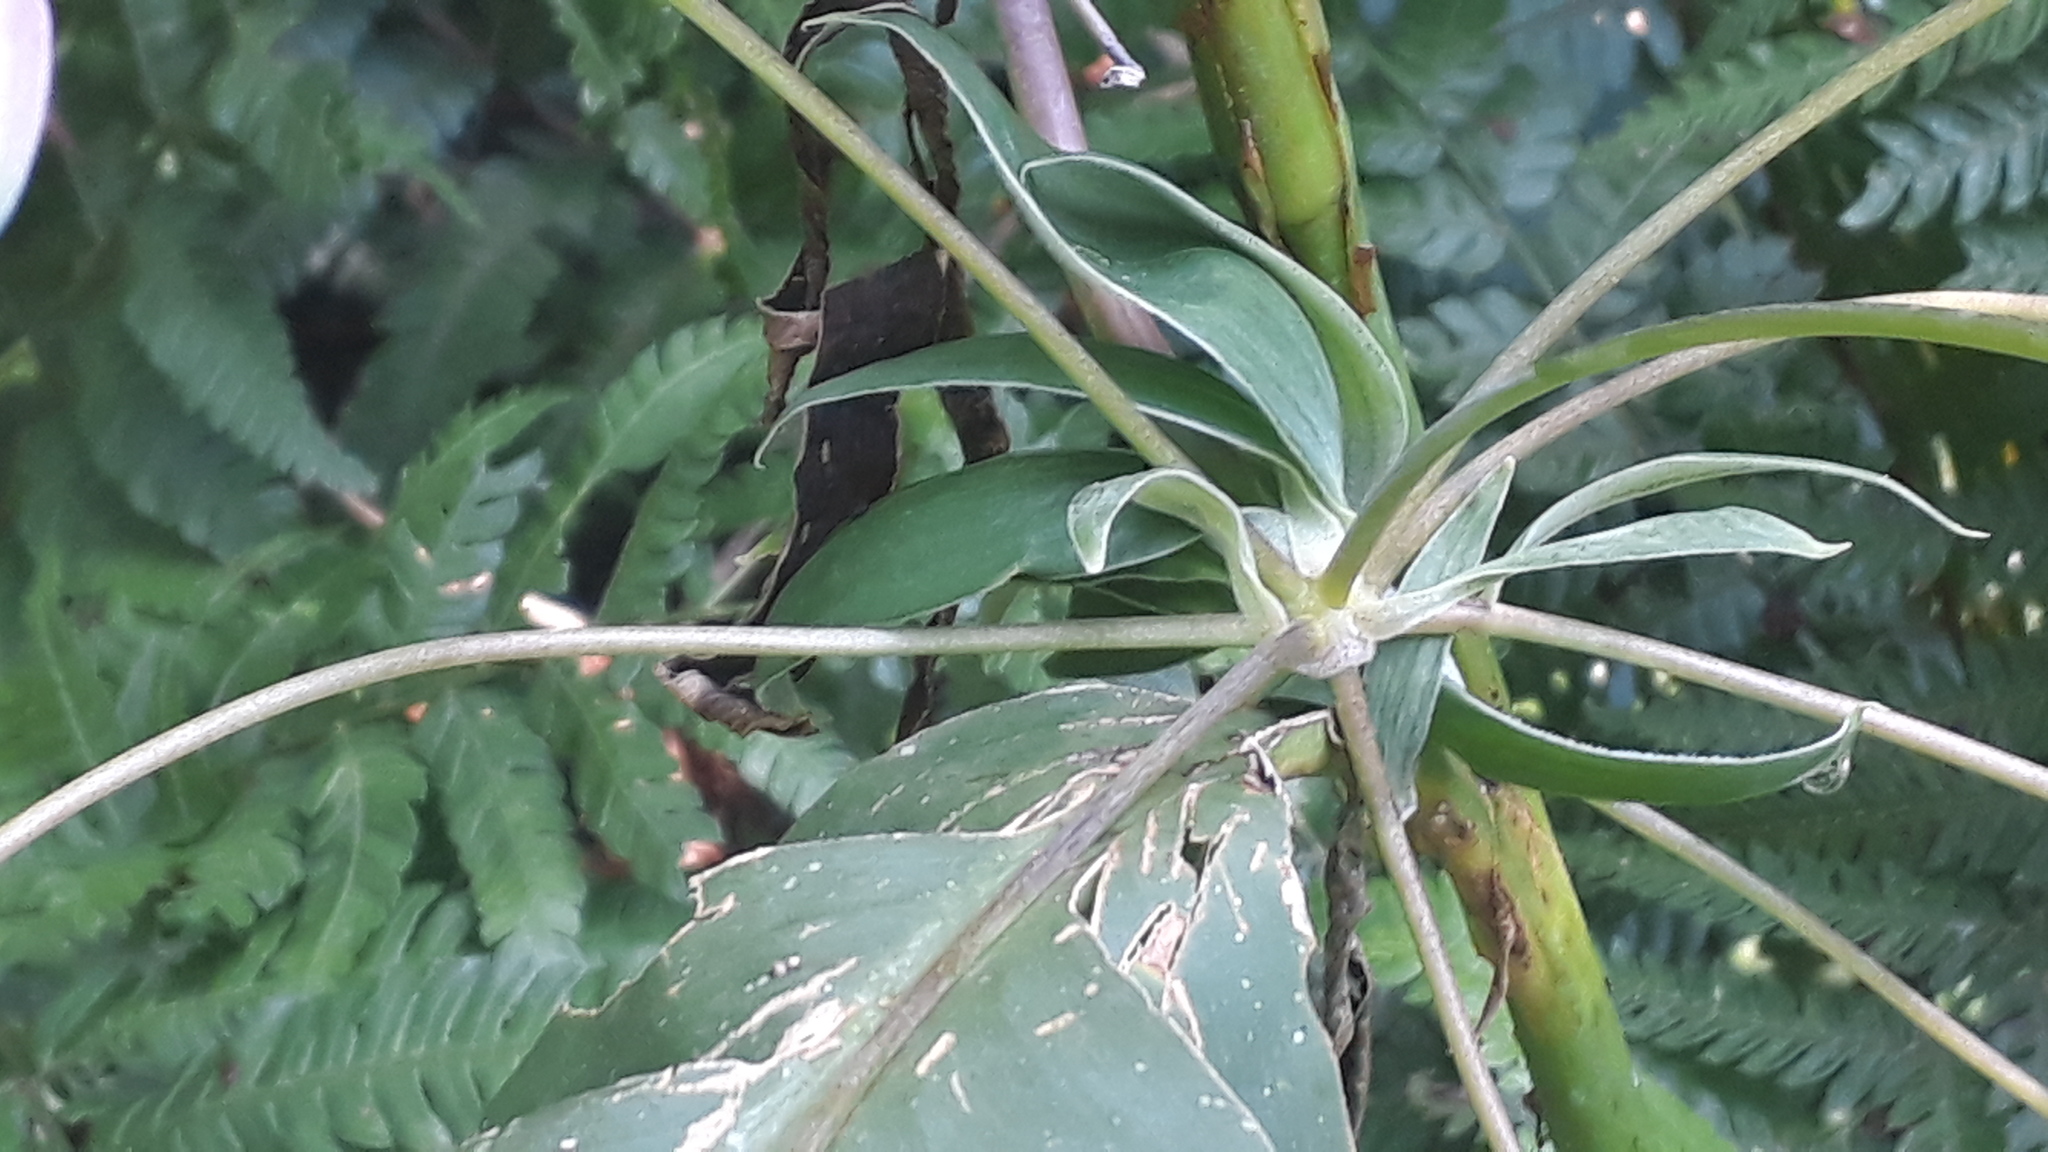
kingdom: Plantae
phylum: Tracheophyta
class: Liliopsida
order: Liliales
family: Alstroemeriaceae
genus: Bomarea
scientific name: Bomarea edulis
